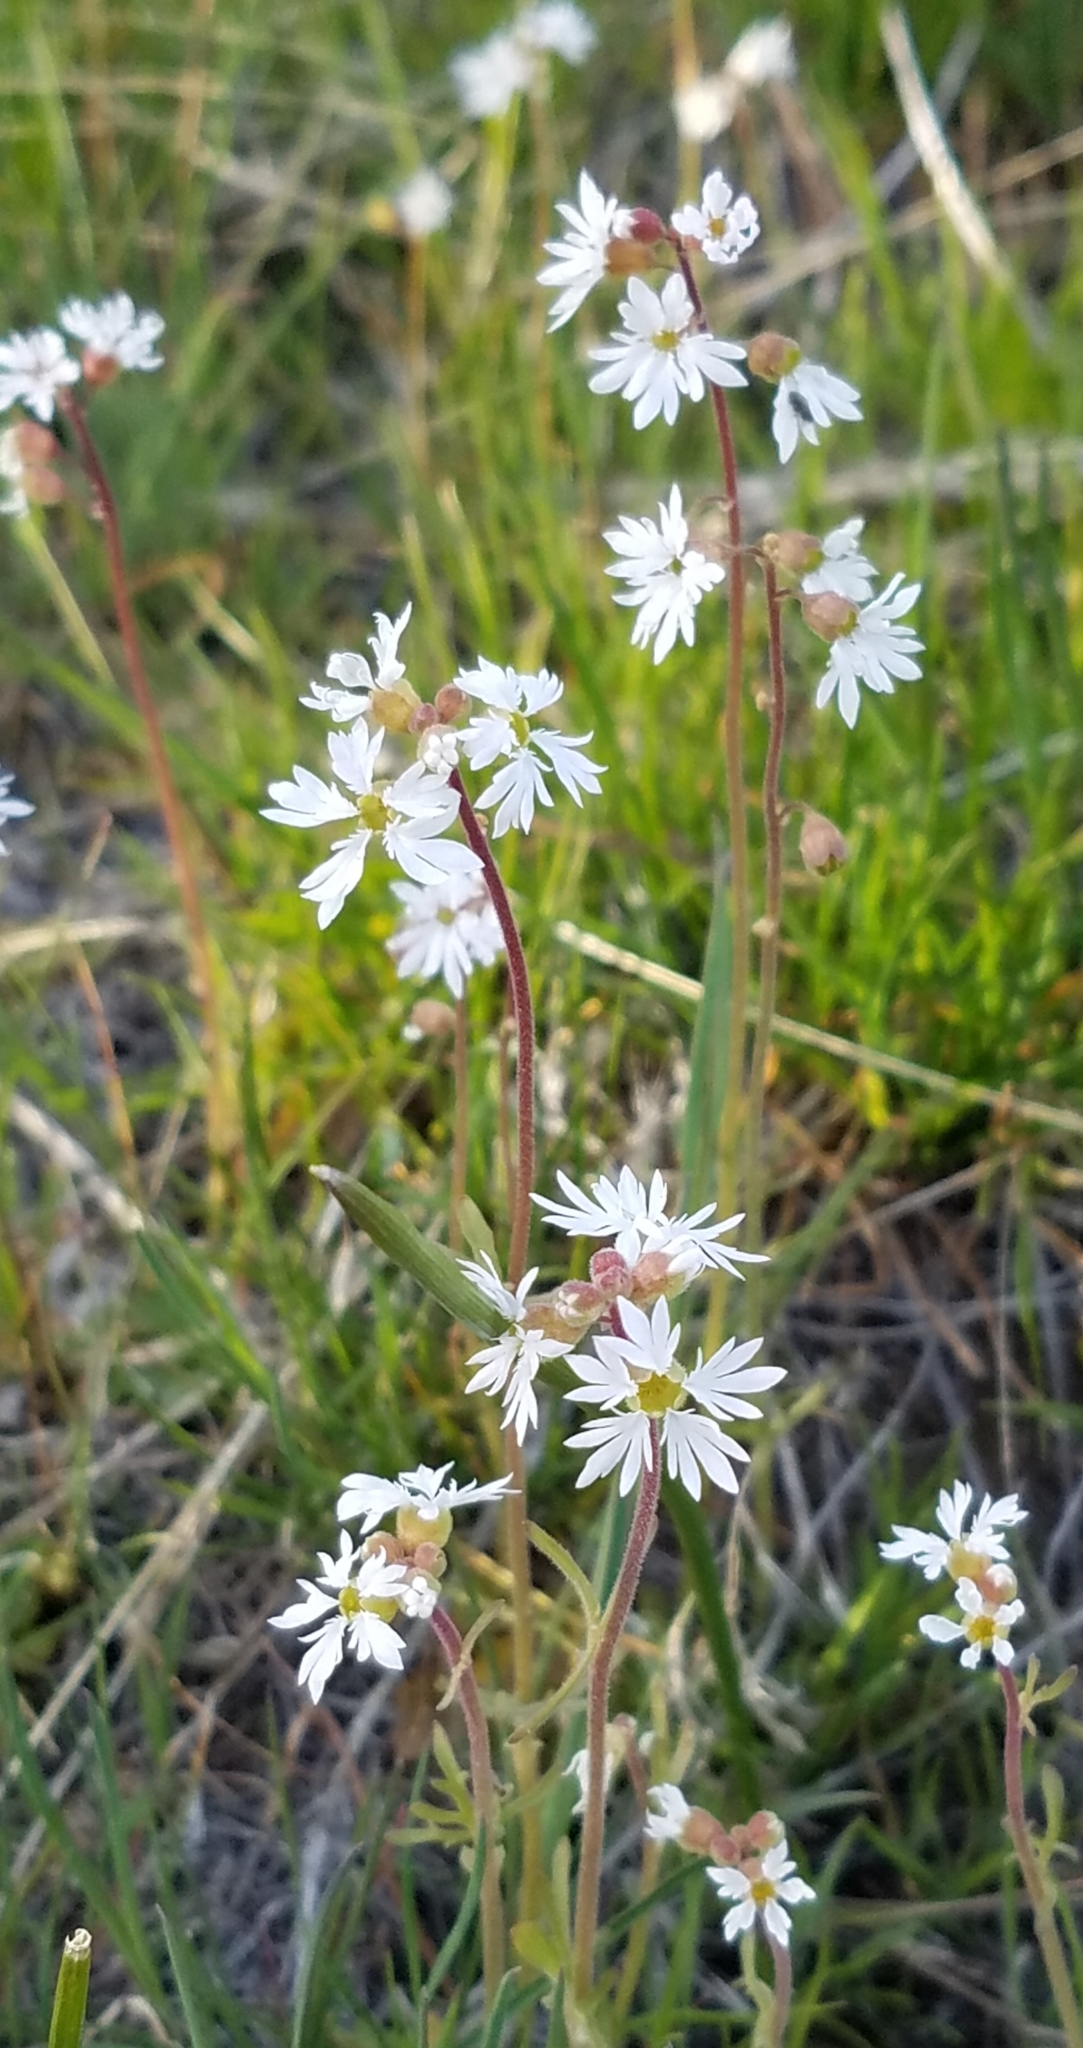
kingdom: Plantae
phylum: Tracheophyta
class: Magnoliopsida
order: Saxifragales
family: Saxifragaceae
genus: Lithophragma
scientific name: Lithophragma glabrum
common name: Bulbous prairie-star
